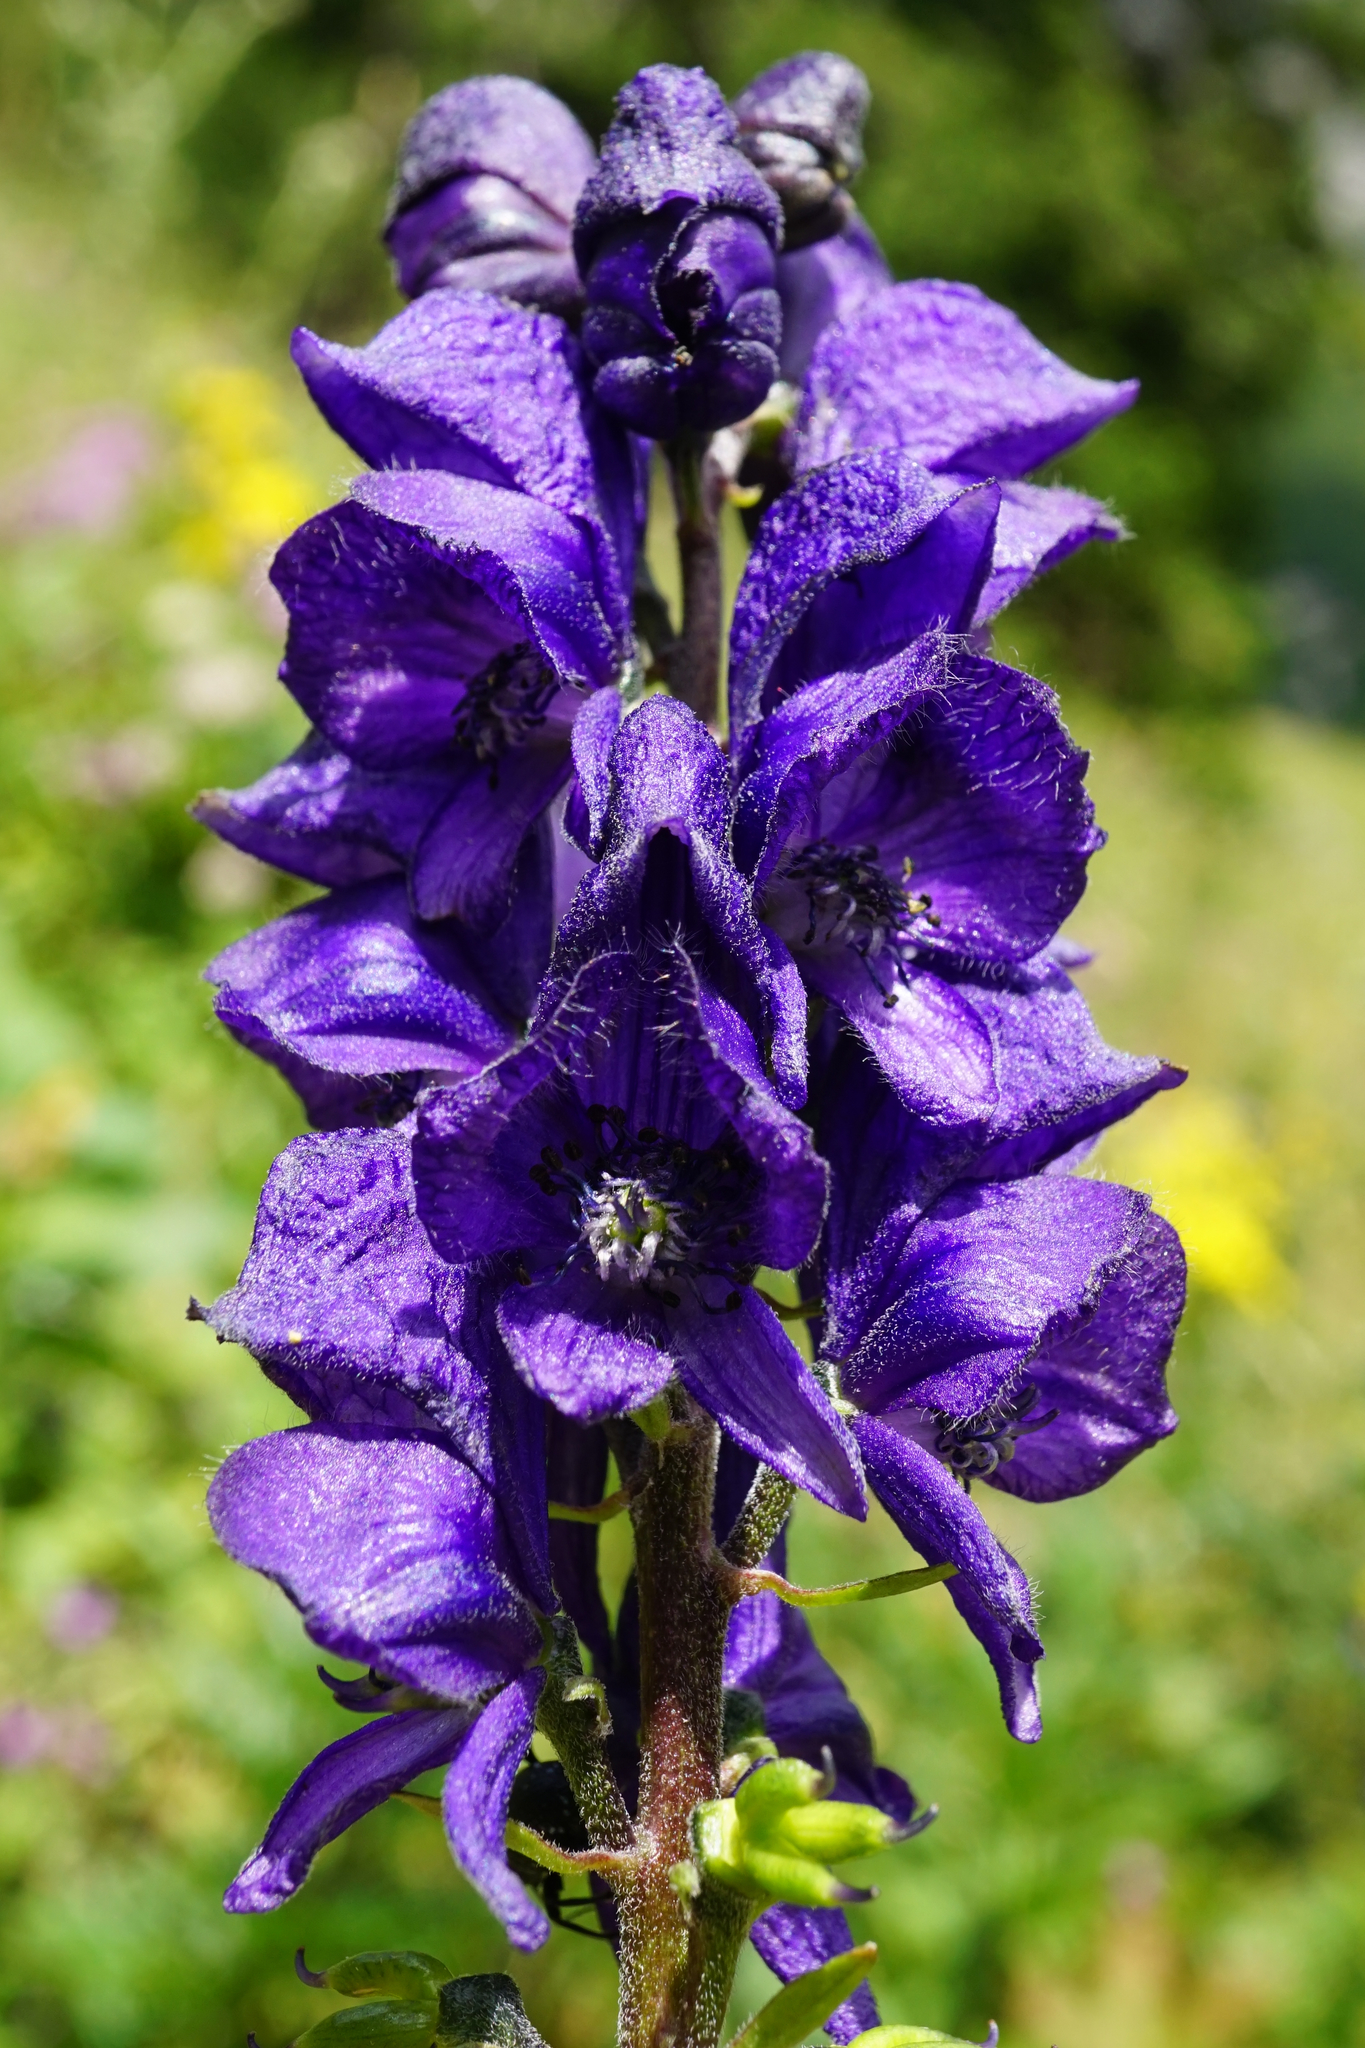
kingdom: Plantae
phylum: Tracheophyta
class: Magnoliopsida
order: Ranunculales
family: Ranunculaceae
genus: Aconitum
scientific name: Aconitum napellus
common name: Garden monkshood
